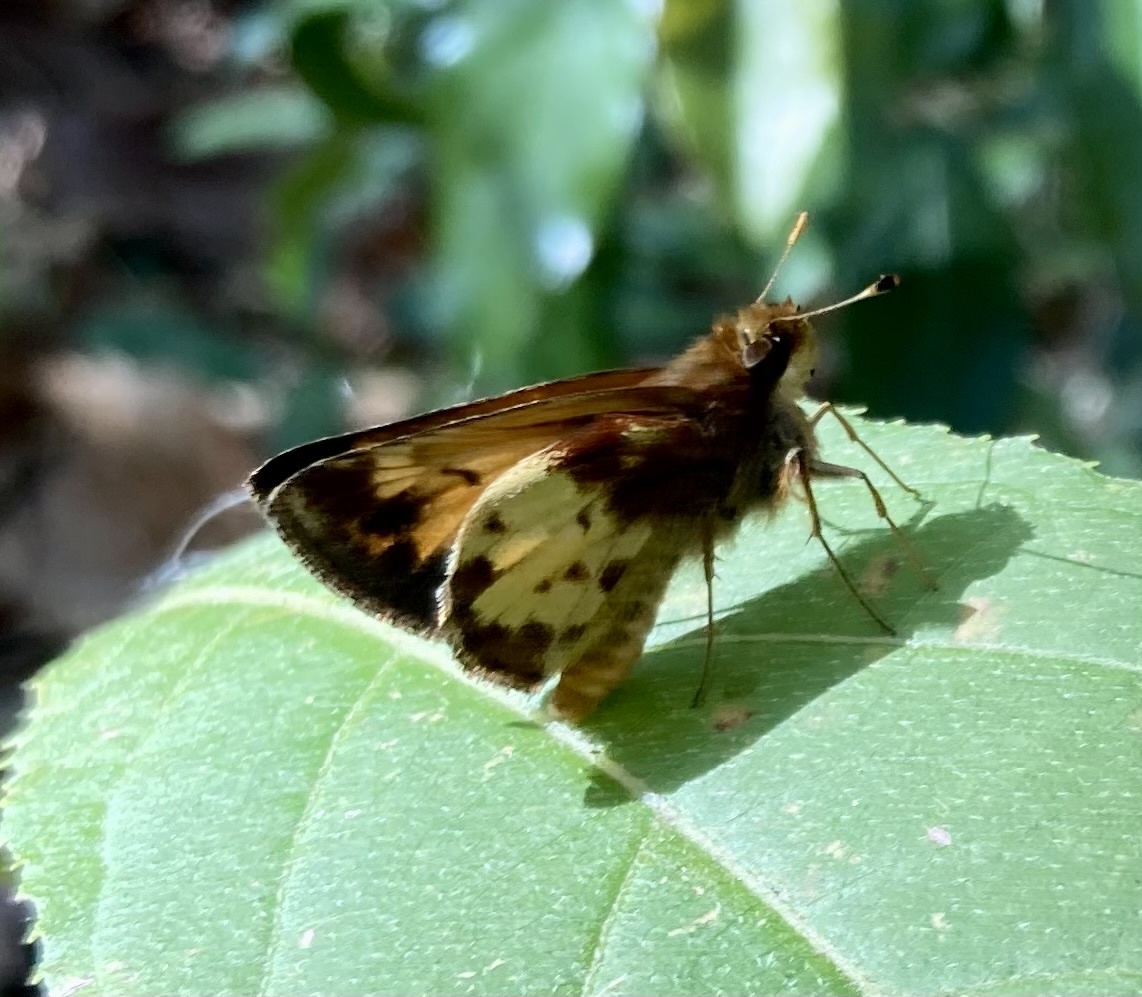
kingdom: Animalia
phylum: Arthropoda
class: Insecta
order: Lepidoptera
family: Hesperiidae
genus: Lon
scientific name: Lon zabulon
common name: Zabulon skipper
